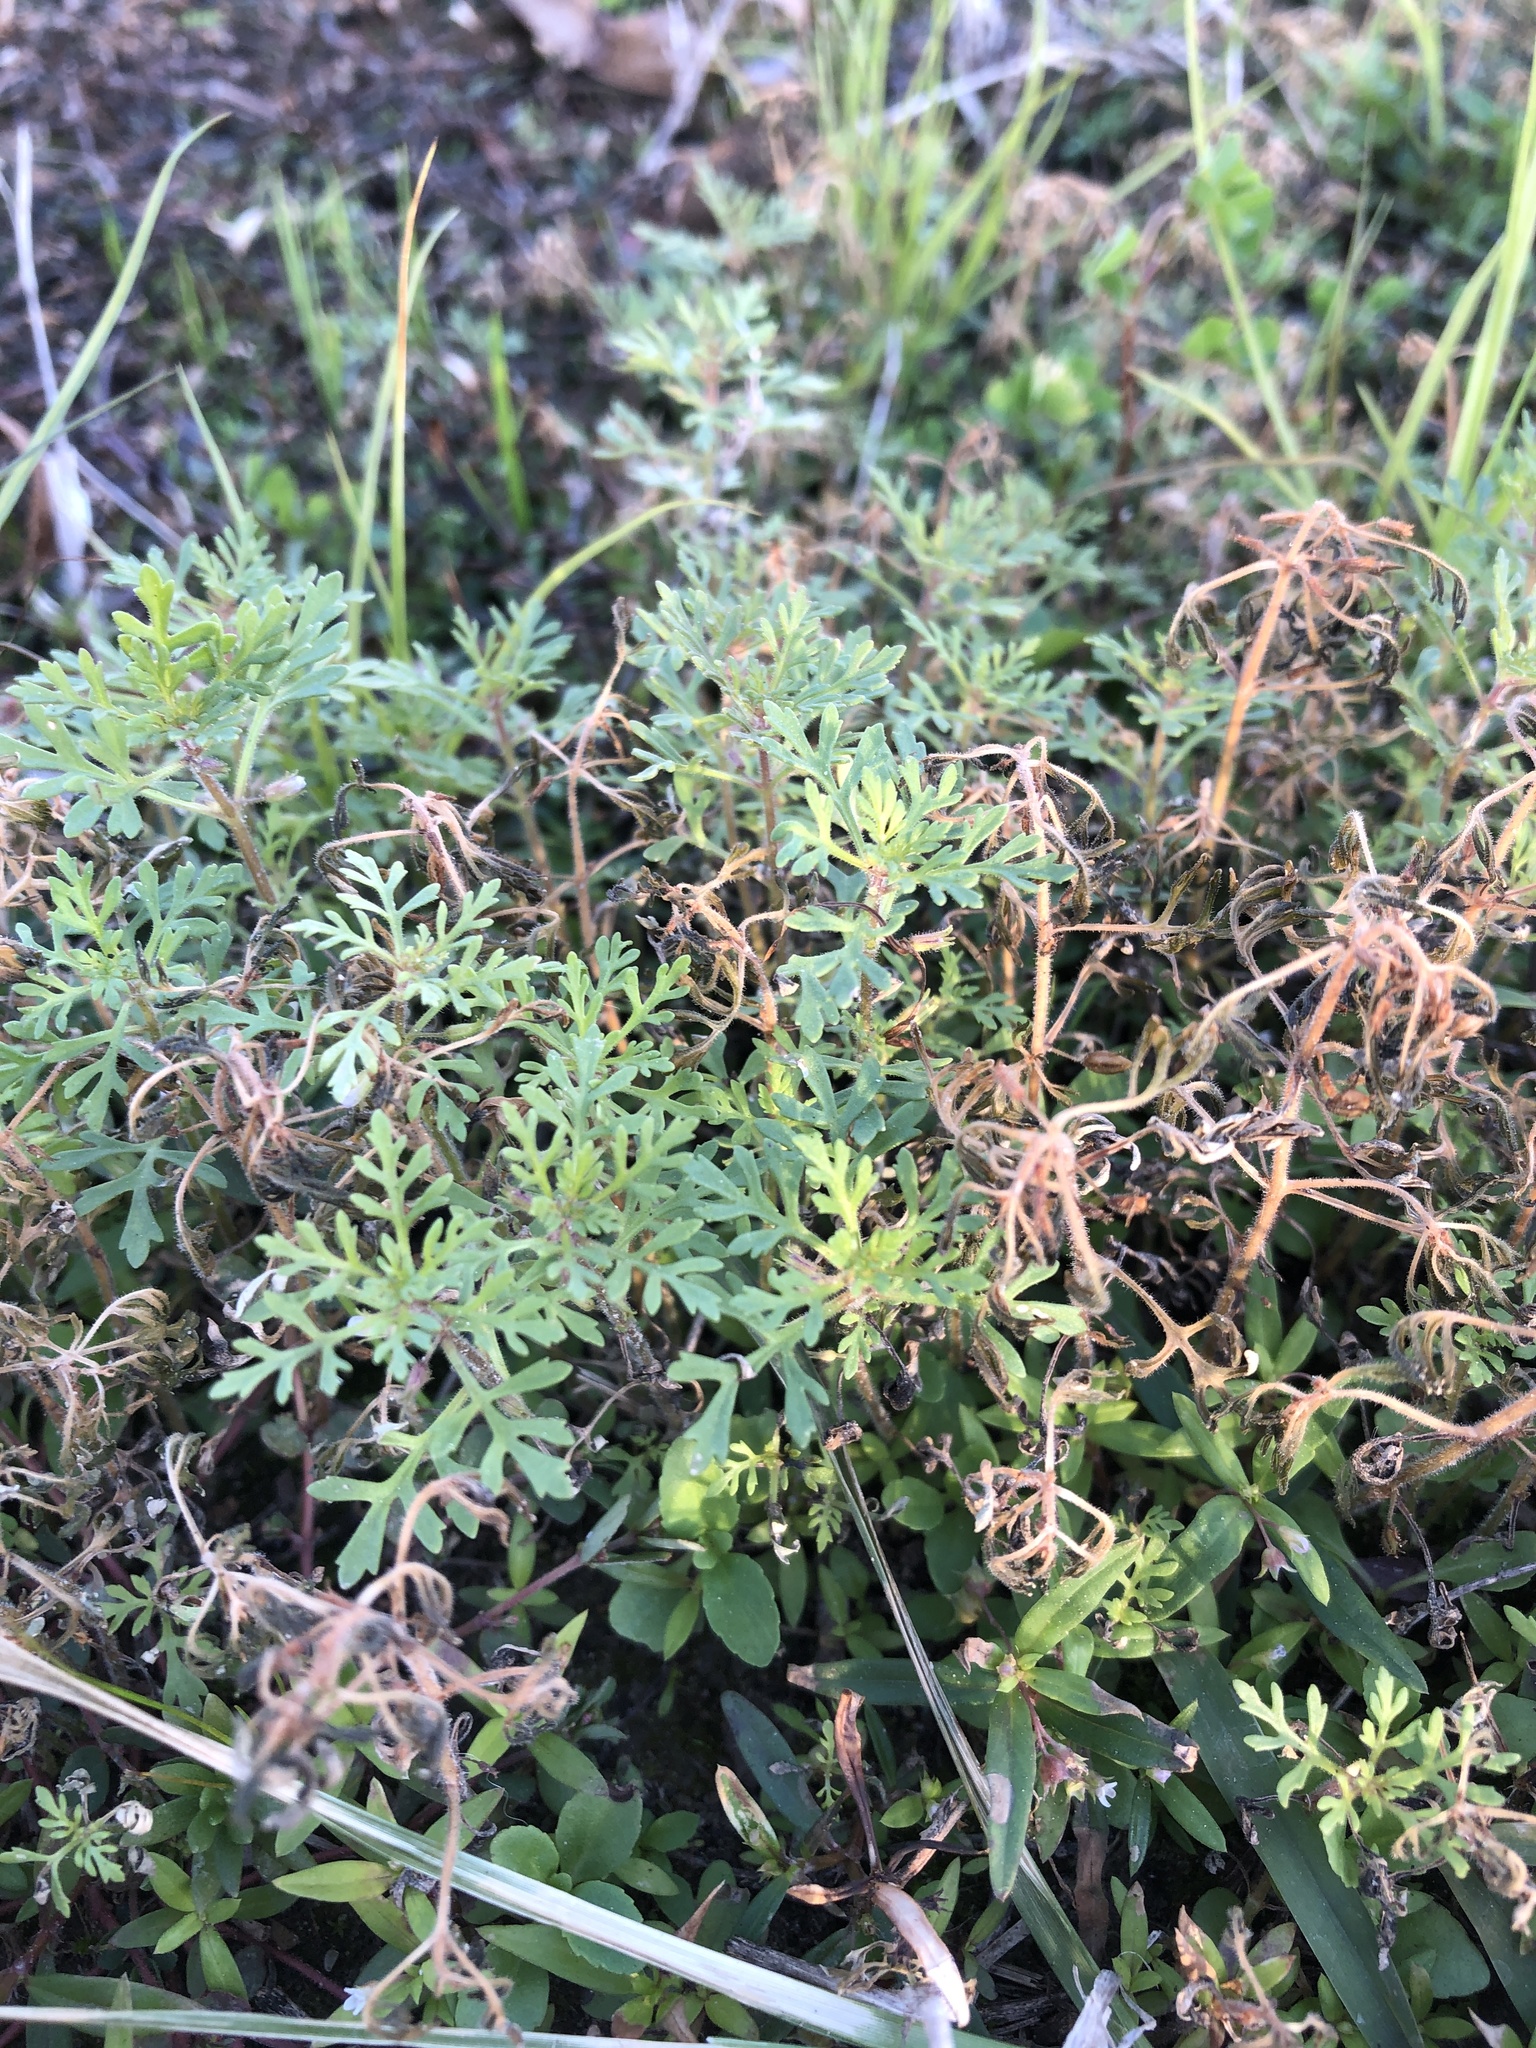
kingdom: Plantae
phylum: Tracheophyta
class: Magnoliopsida
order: Lamiales
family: Plantaginaceae
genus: Leucospora
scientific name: Leucospora multifida
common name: Narrow-leaf paleseed
